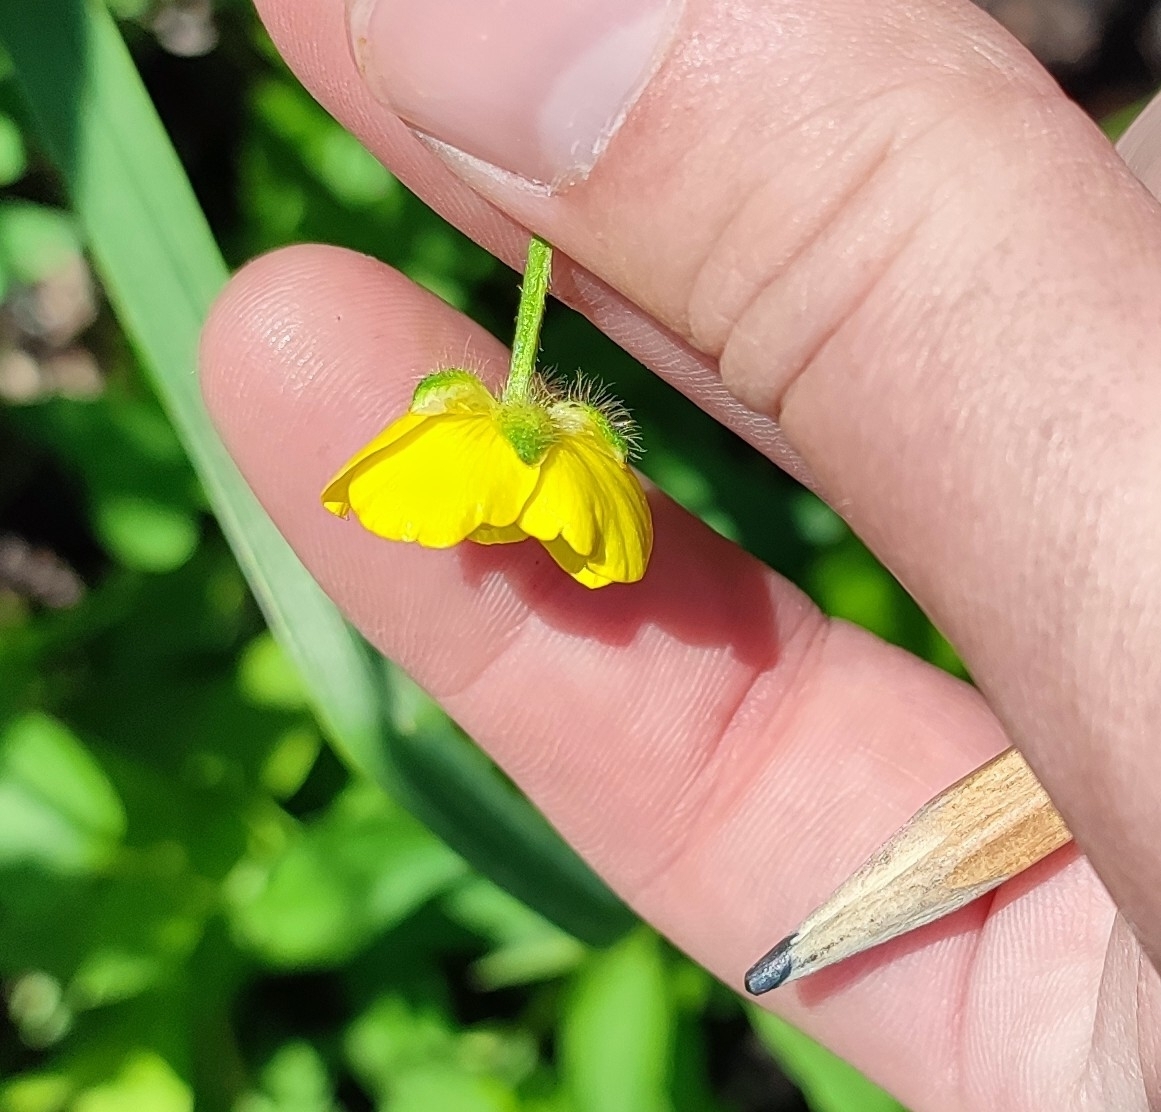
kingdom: Plantae
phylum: Tracheophyta
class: Magnoliopsida
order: Ranunculales
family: Ranunculaceae
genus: Ranunculus
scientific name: Ranunculus polyanthemos
